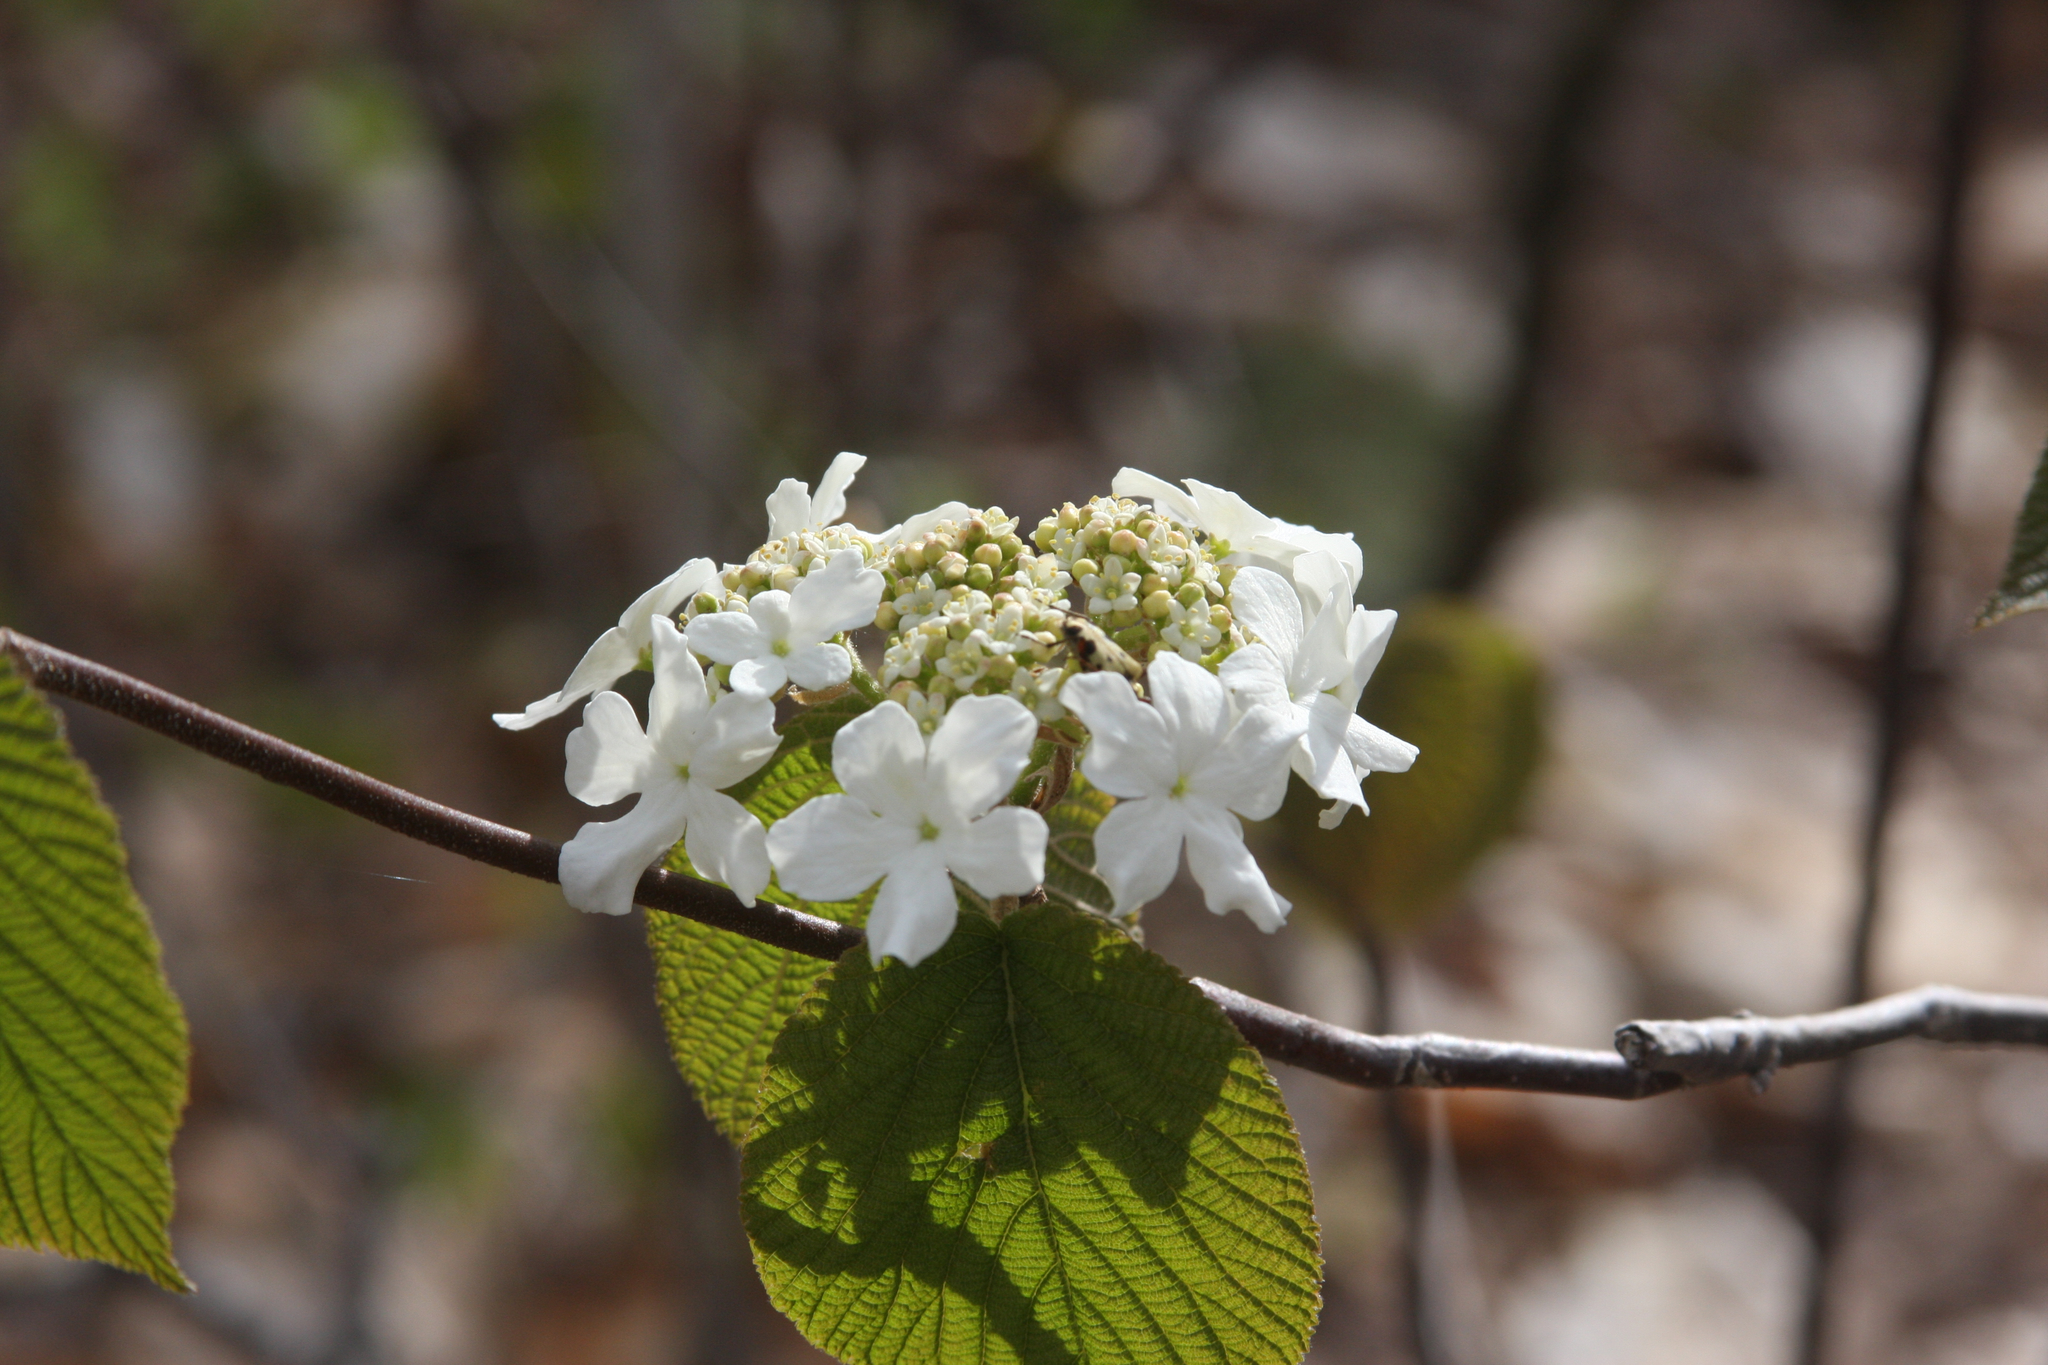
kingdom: Plantae
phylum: Tracheophyta
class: Magnoliopsida
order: Dipsacales
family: Viburnaceae
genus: Viburnum
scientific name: Viburnum lantanoides
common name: Hobblebush
